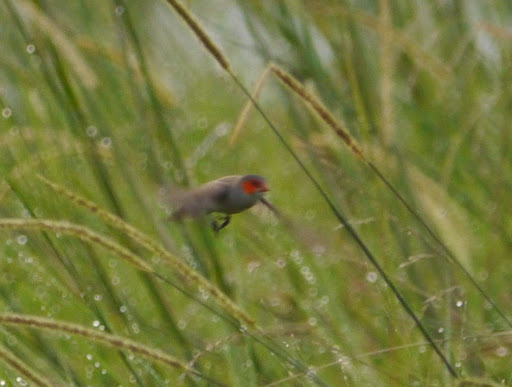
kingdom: Animalia
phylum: Chordata
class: Aves
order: Passeriformes
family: Estrildidae
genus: Estrilda
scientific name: Estrilda melpoda
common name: Orange-cheeked waxbill
